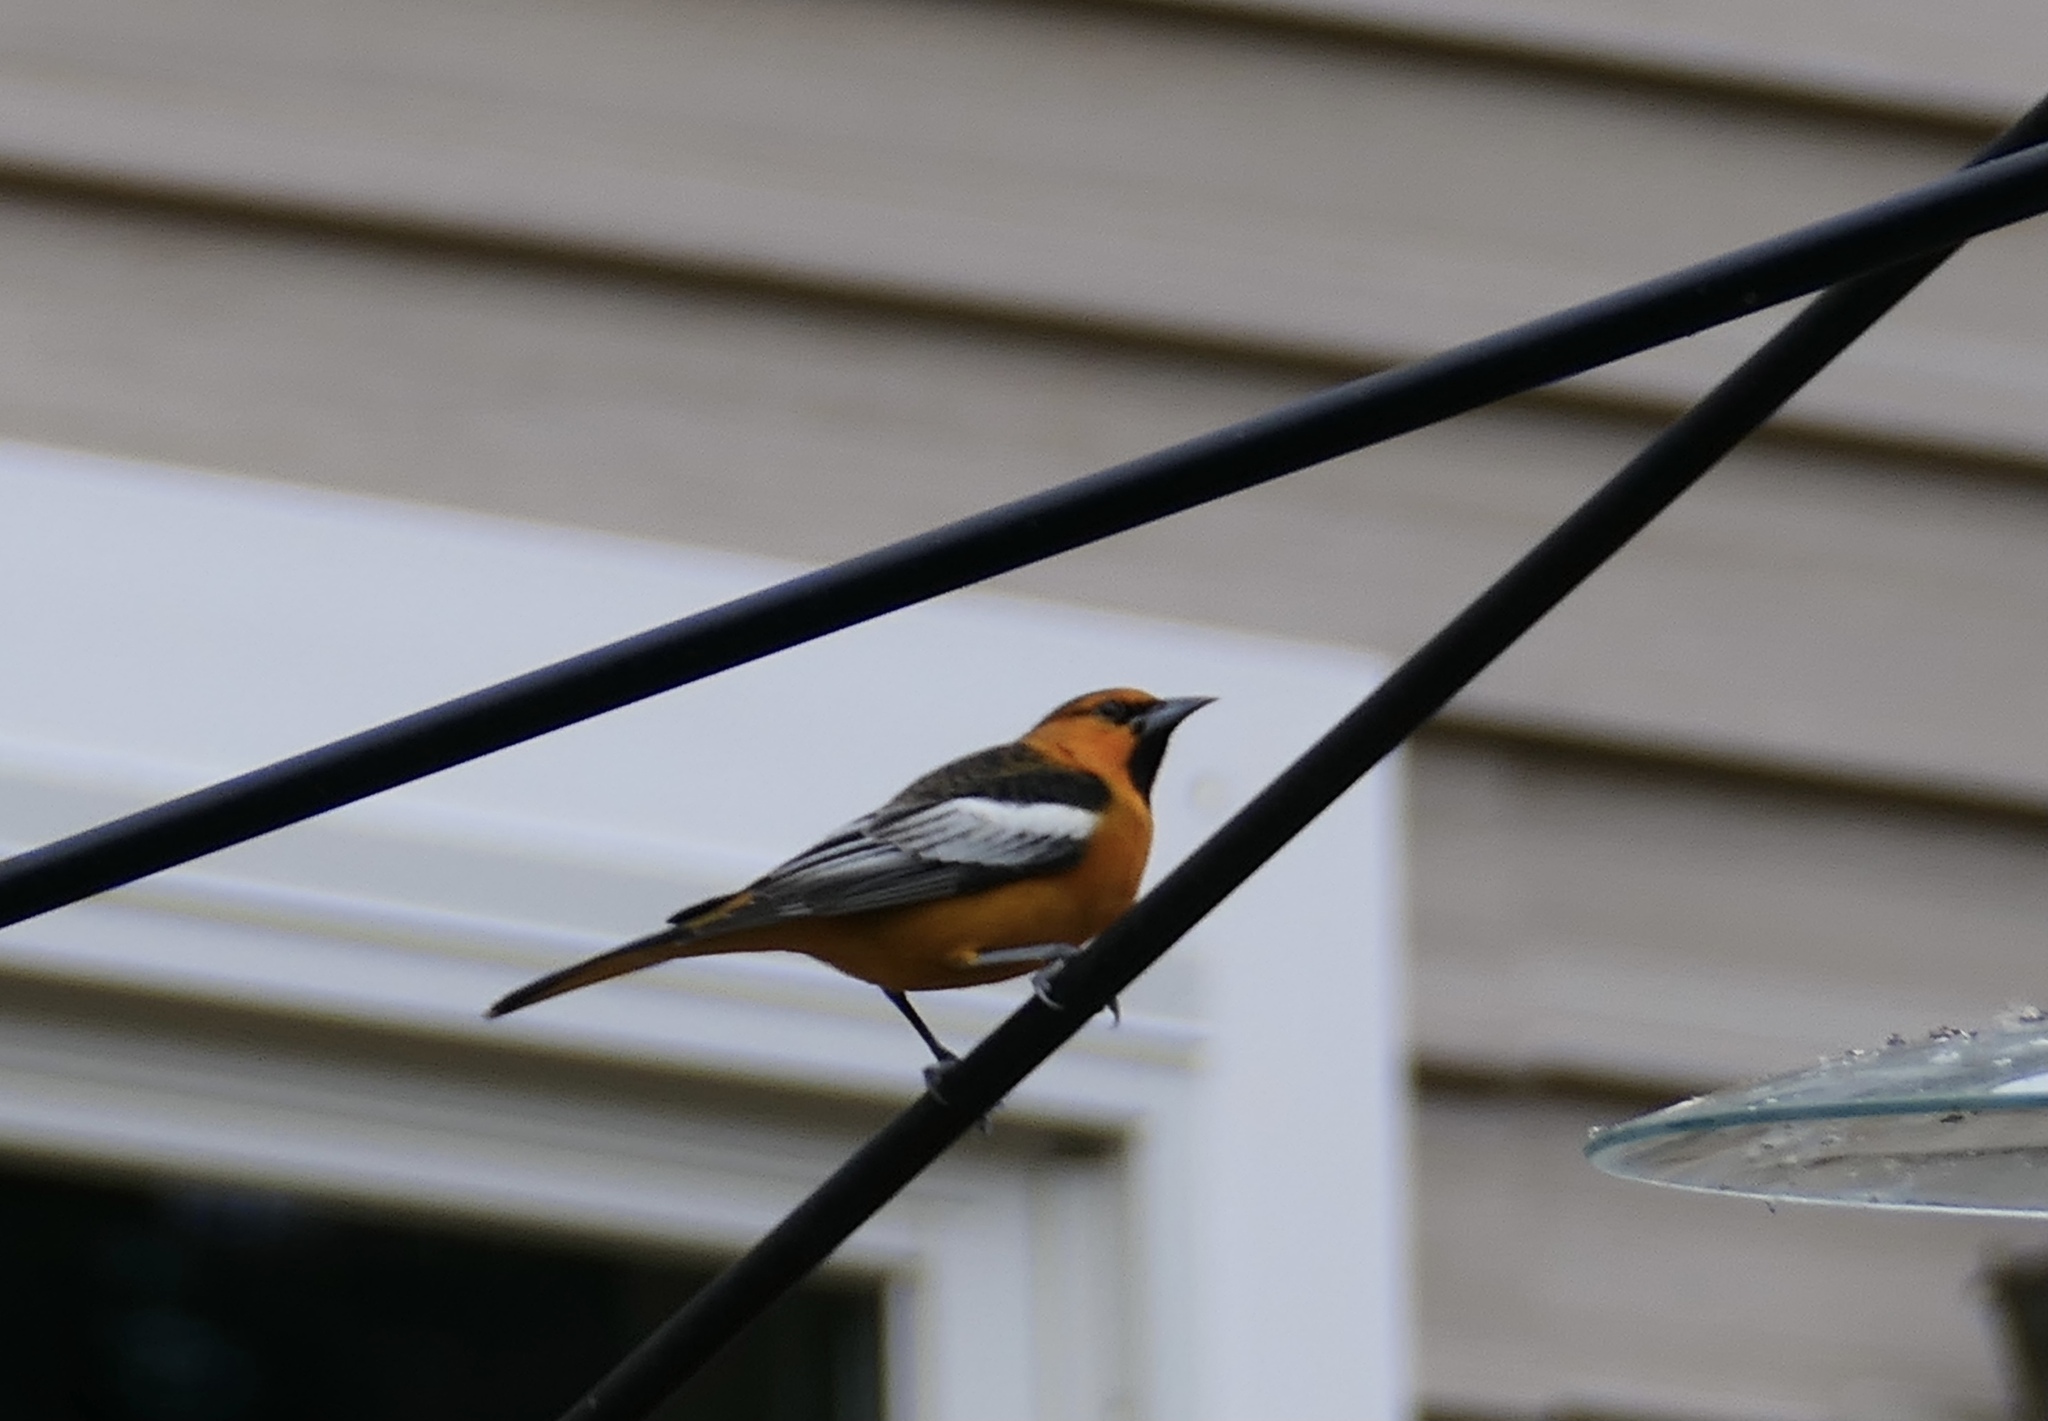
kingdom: Animalia
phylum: Chordata
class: Aves
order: Passeriformes
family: Icteridae
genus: Icterus
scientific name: Icterus bullockii
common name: Bullock's oriole
